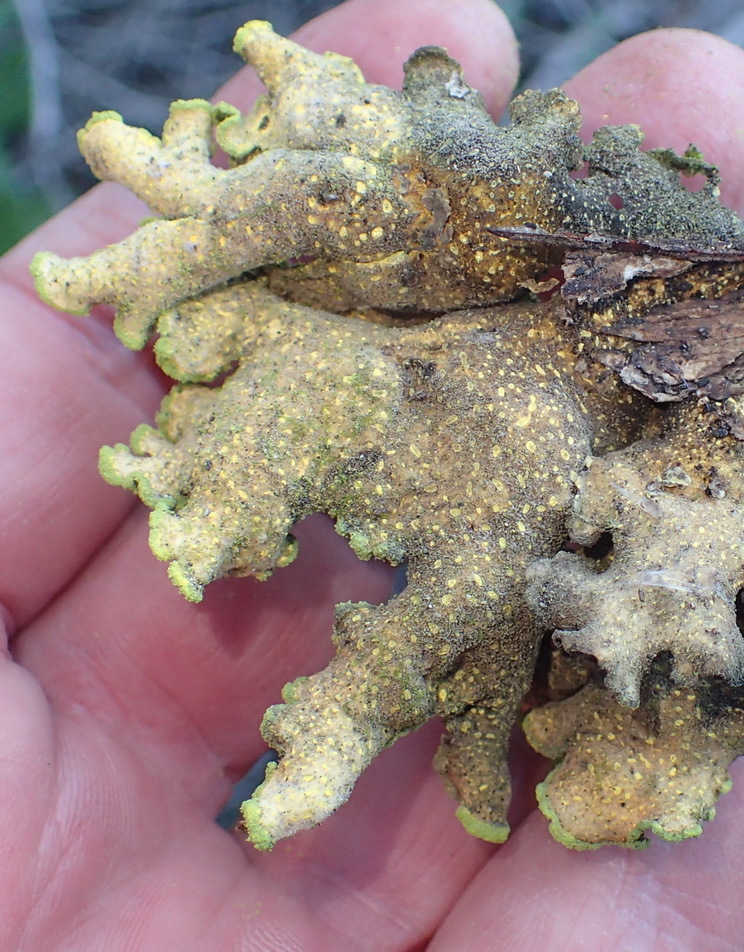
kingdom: Fungi
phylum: Ascomycota
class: Lecanoromycetes
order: Peltigerales
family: Lobariaceae
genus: Pseudocyphellaria
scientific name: Pseudocyphellaria aurata
